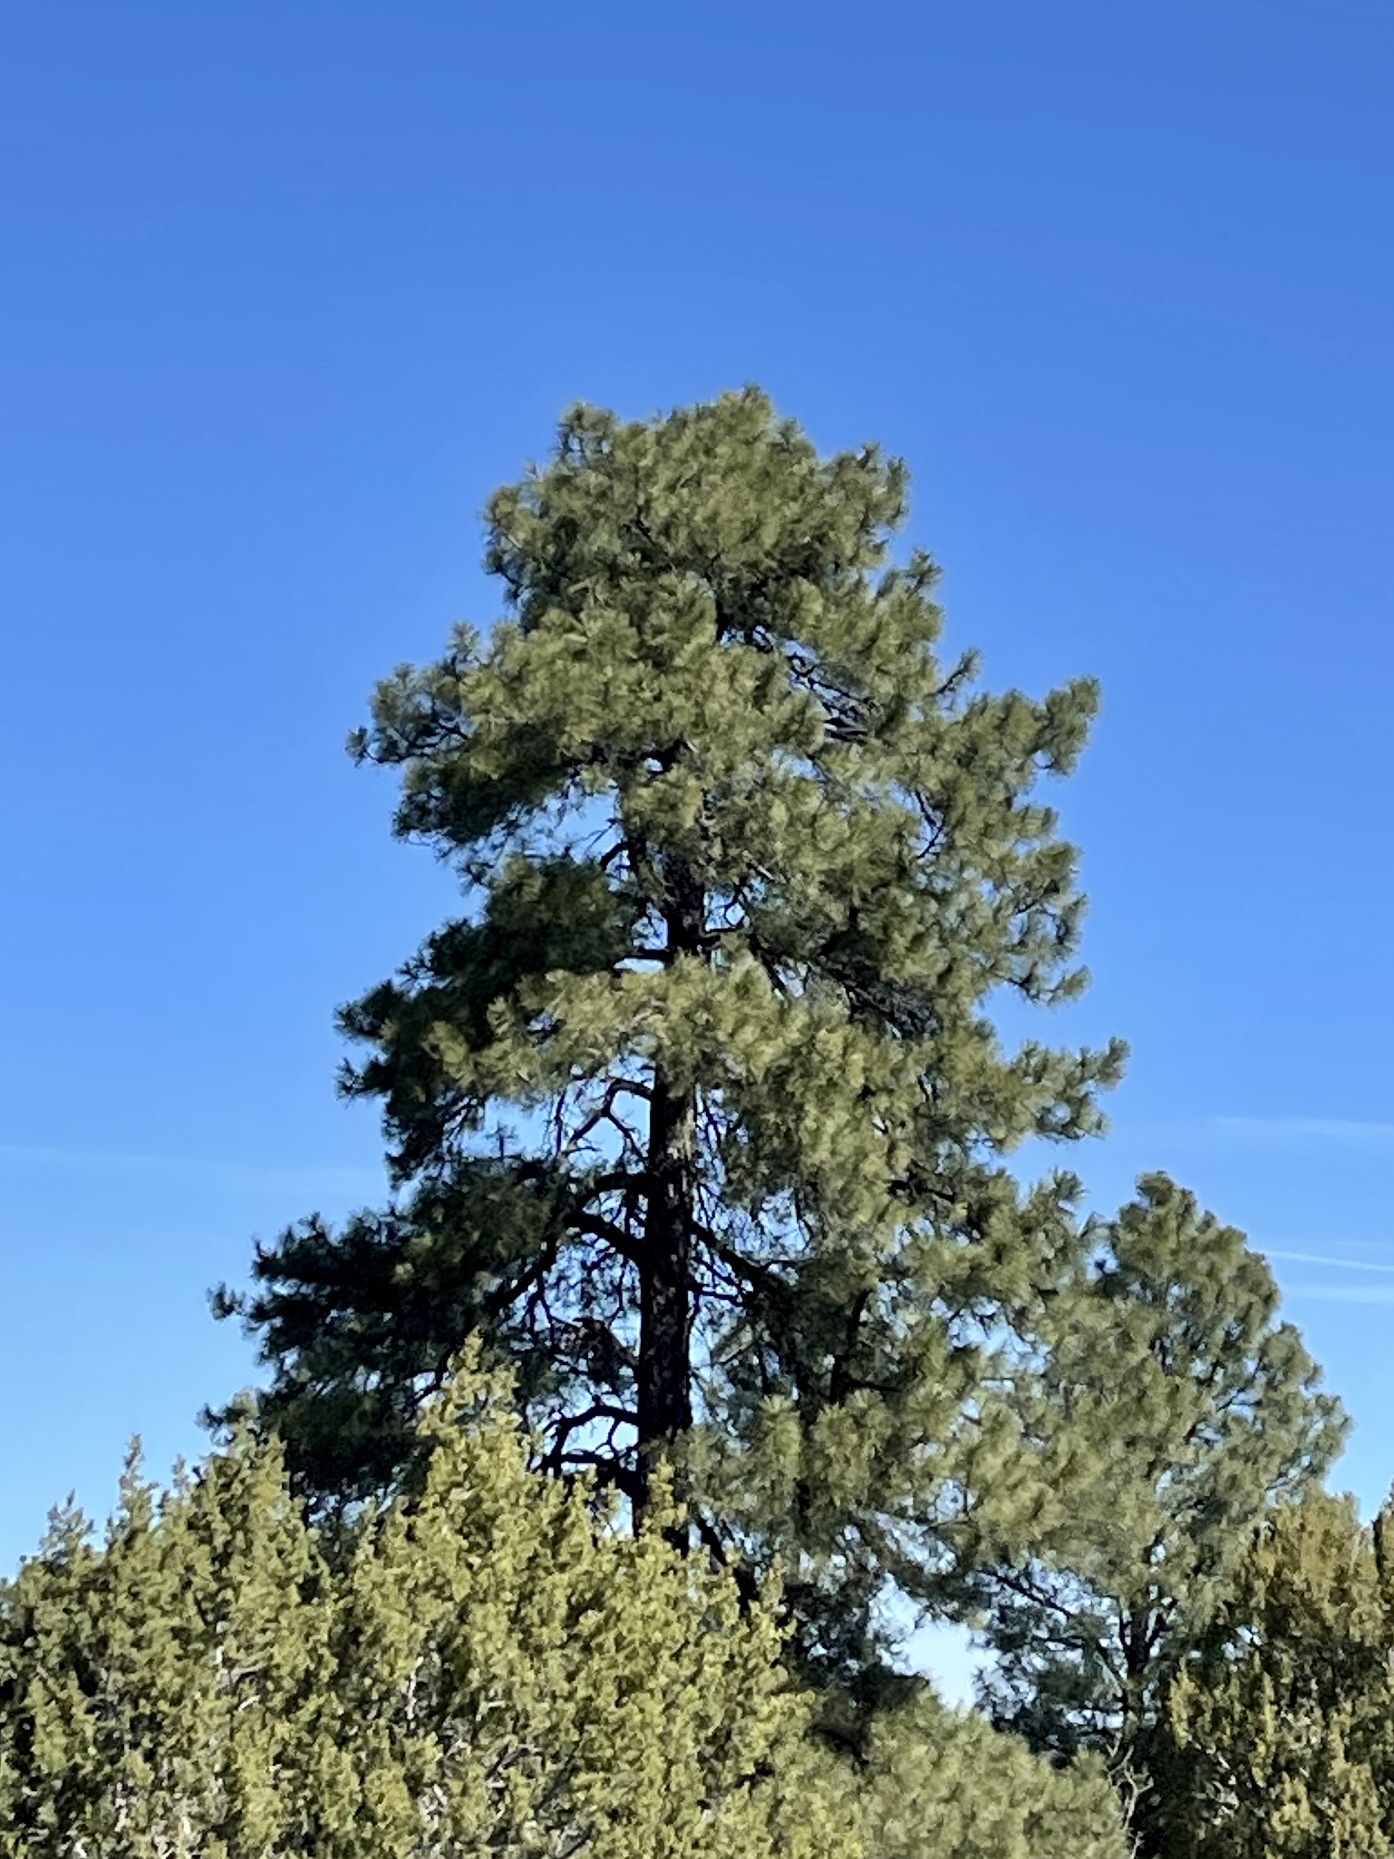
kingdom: Plantae
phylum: Tracheophyta
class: Pinopsida
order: Pinales
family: Pinaceae
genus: Pinus
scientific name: Pinus ponderosa
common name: Western yellow-pine
